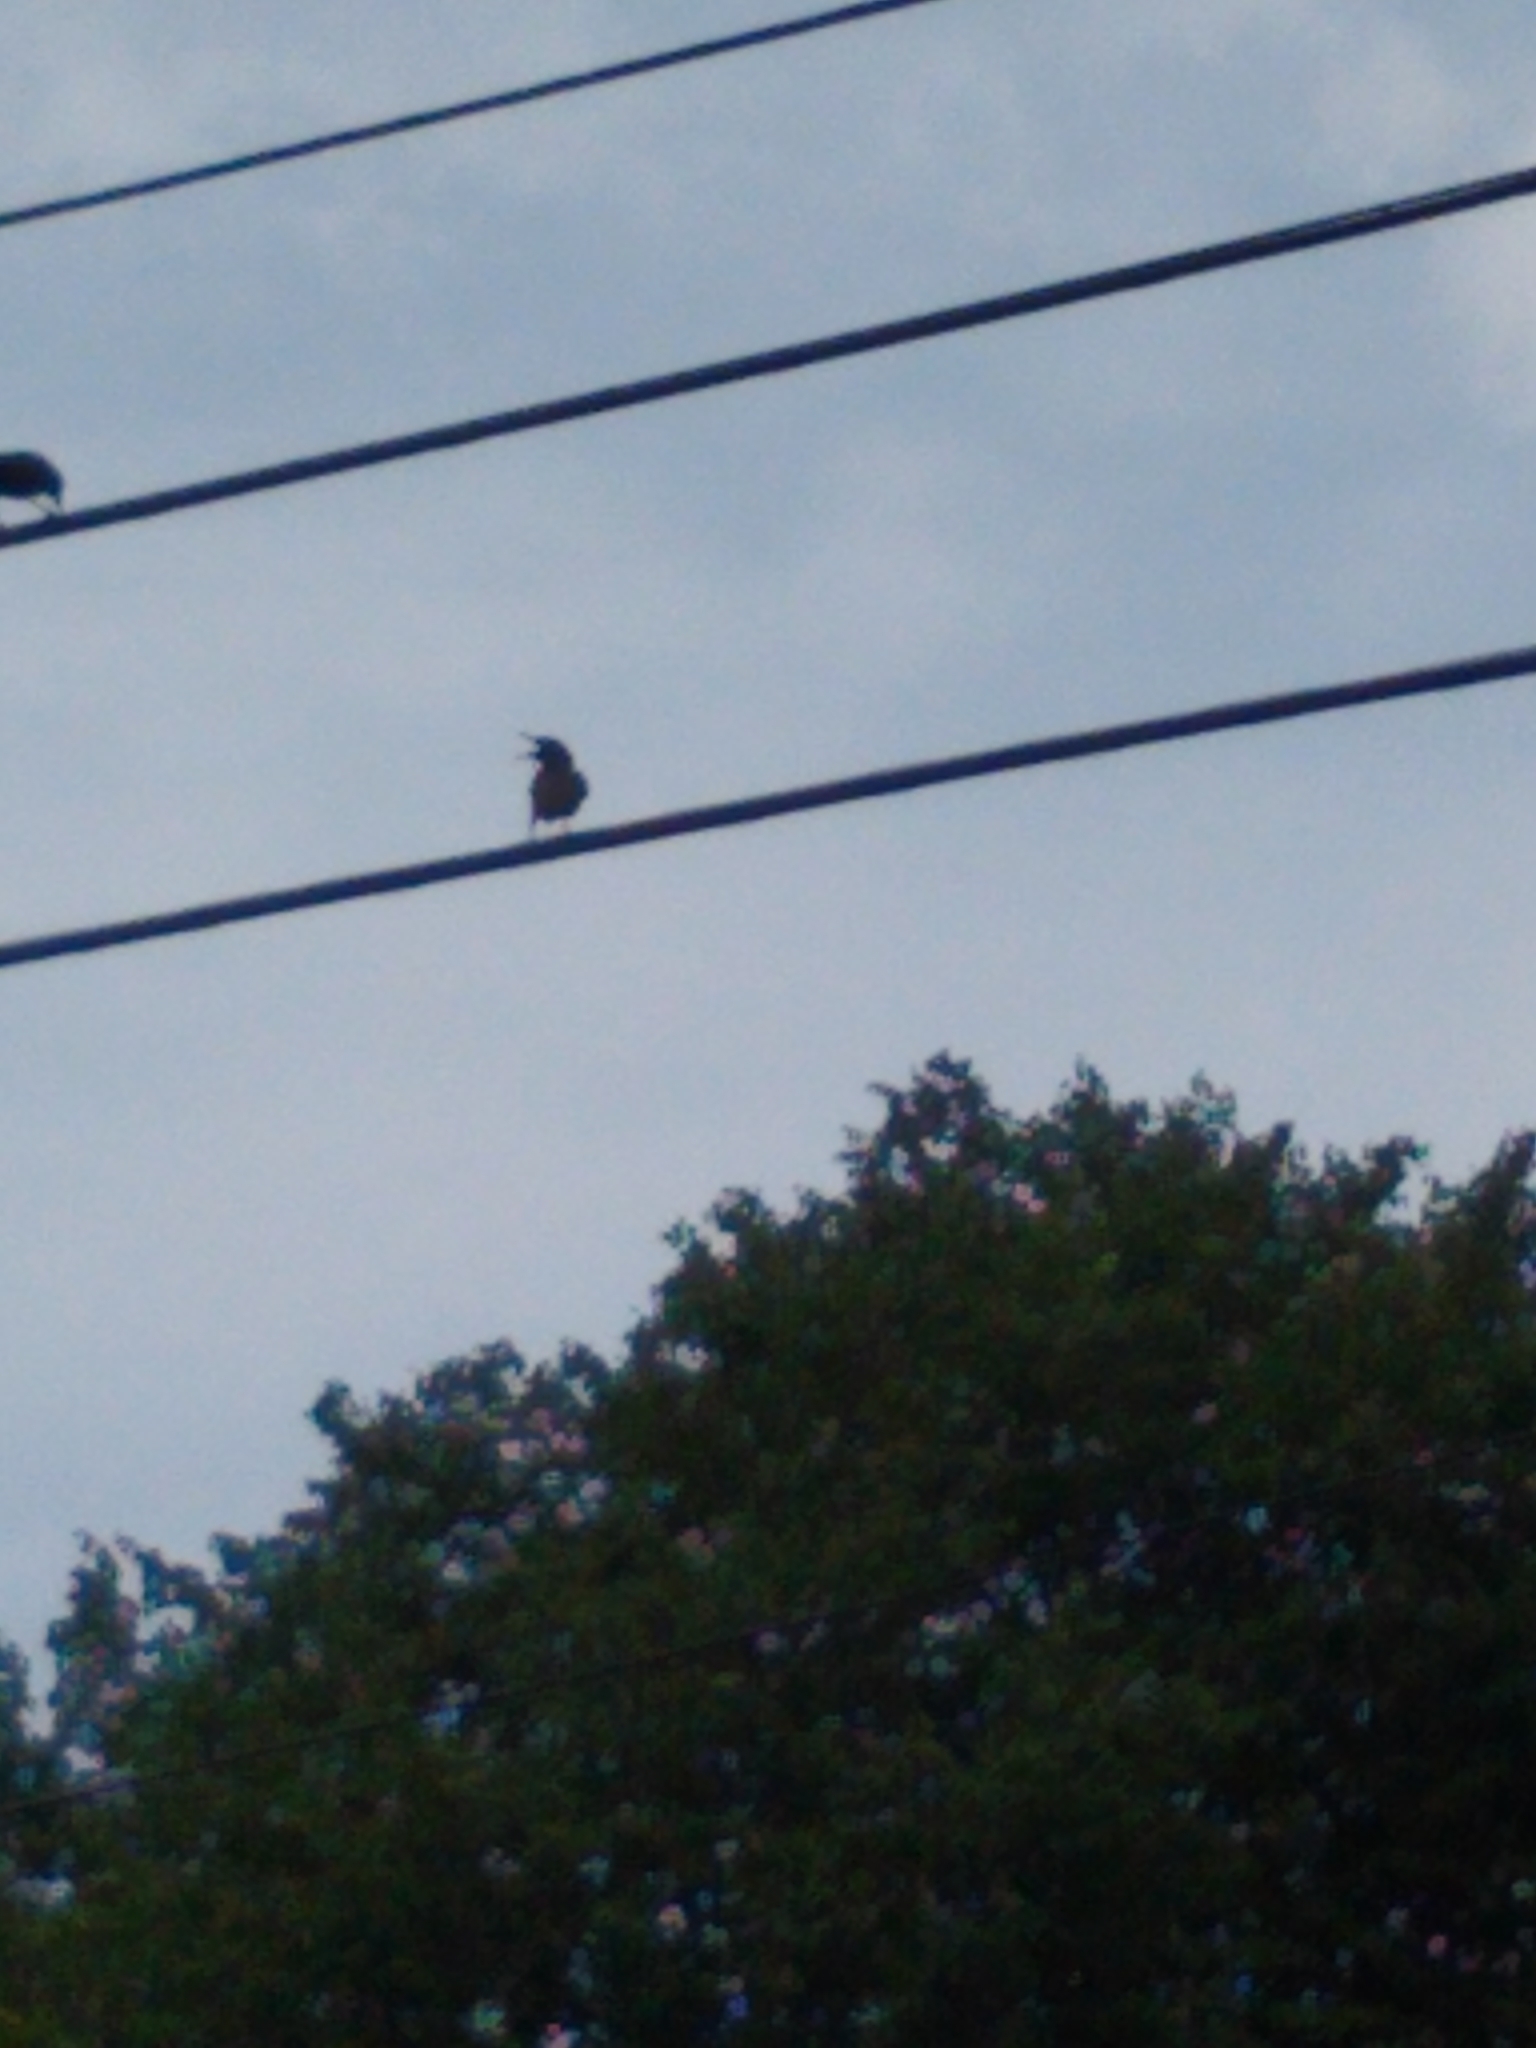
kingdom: Animalia
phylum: Chordata
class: Aves
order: Passeriformes
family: Sturnidae
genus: Sturnus
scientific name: Sturnus vulgaris
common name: Common starling
